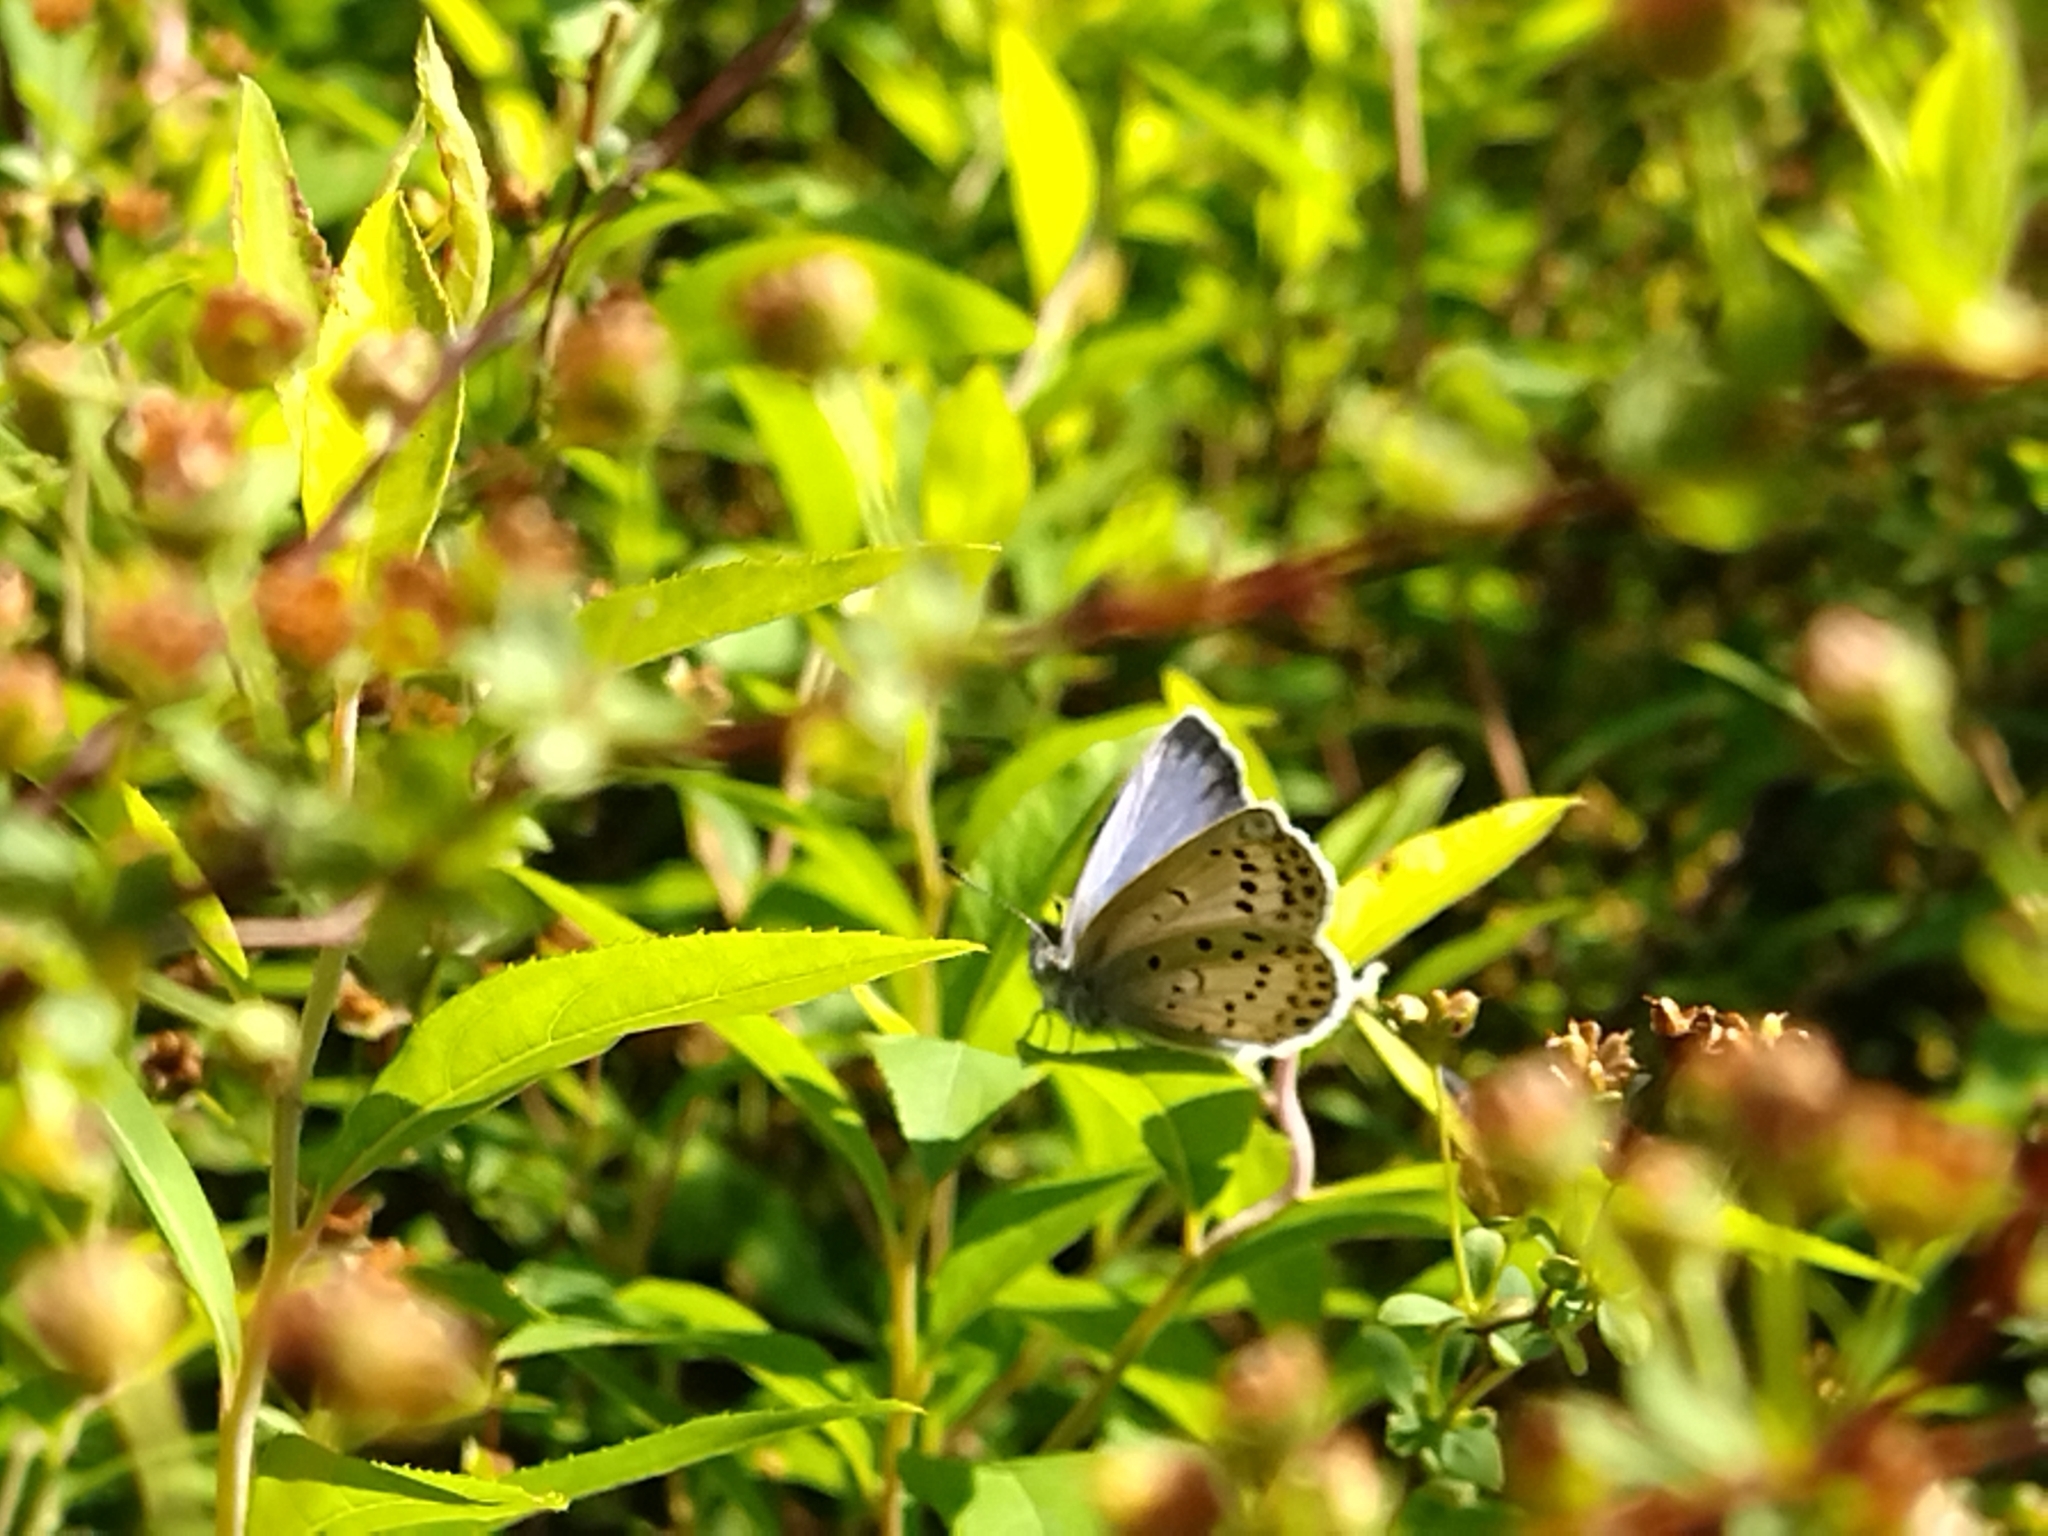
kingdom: Animalia
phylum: Arthropoda
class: Insecta
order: Lepidoptera
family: Lycaenidae
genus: Pseudozizeeria
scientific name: Pseudozizeeria maha
